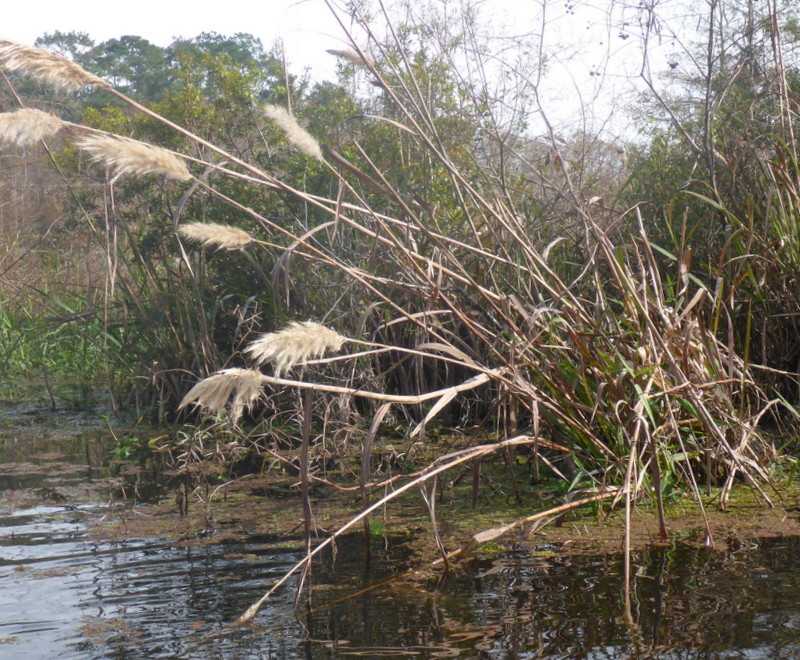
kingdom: Plantae
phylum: Tracheophyta
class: Liliopsida
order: Poales
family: Poaceae
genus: Erianthus
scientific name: Erianthus giganteus
